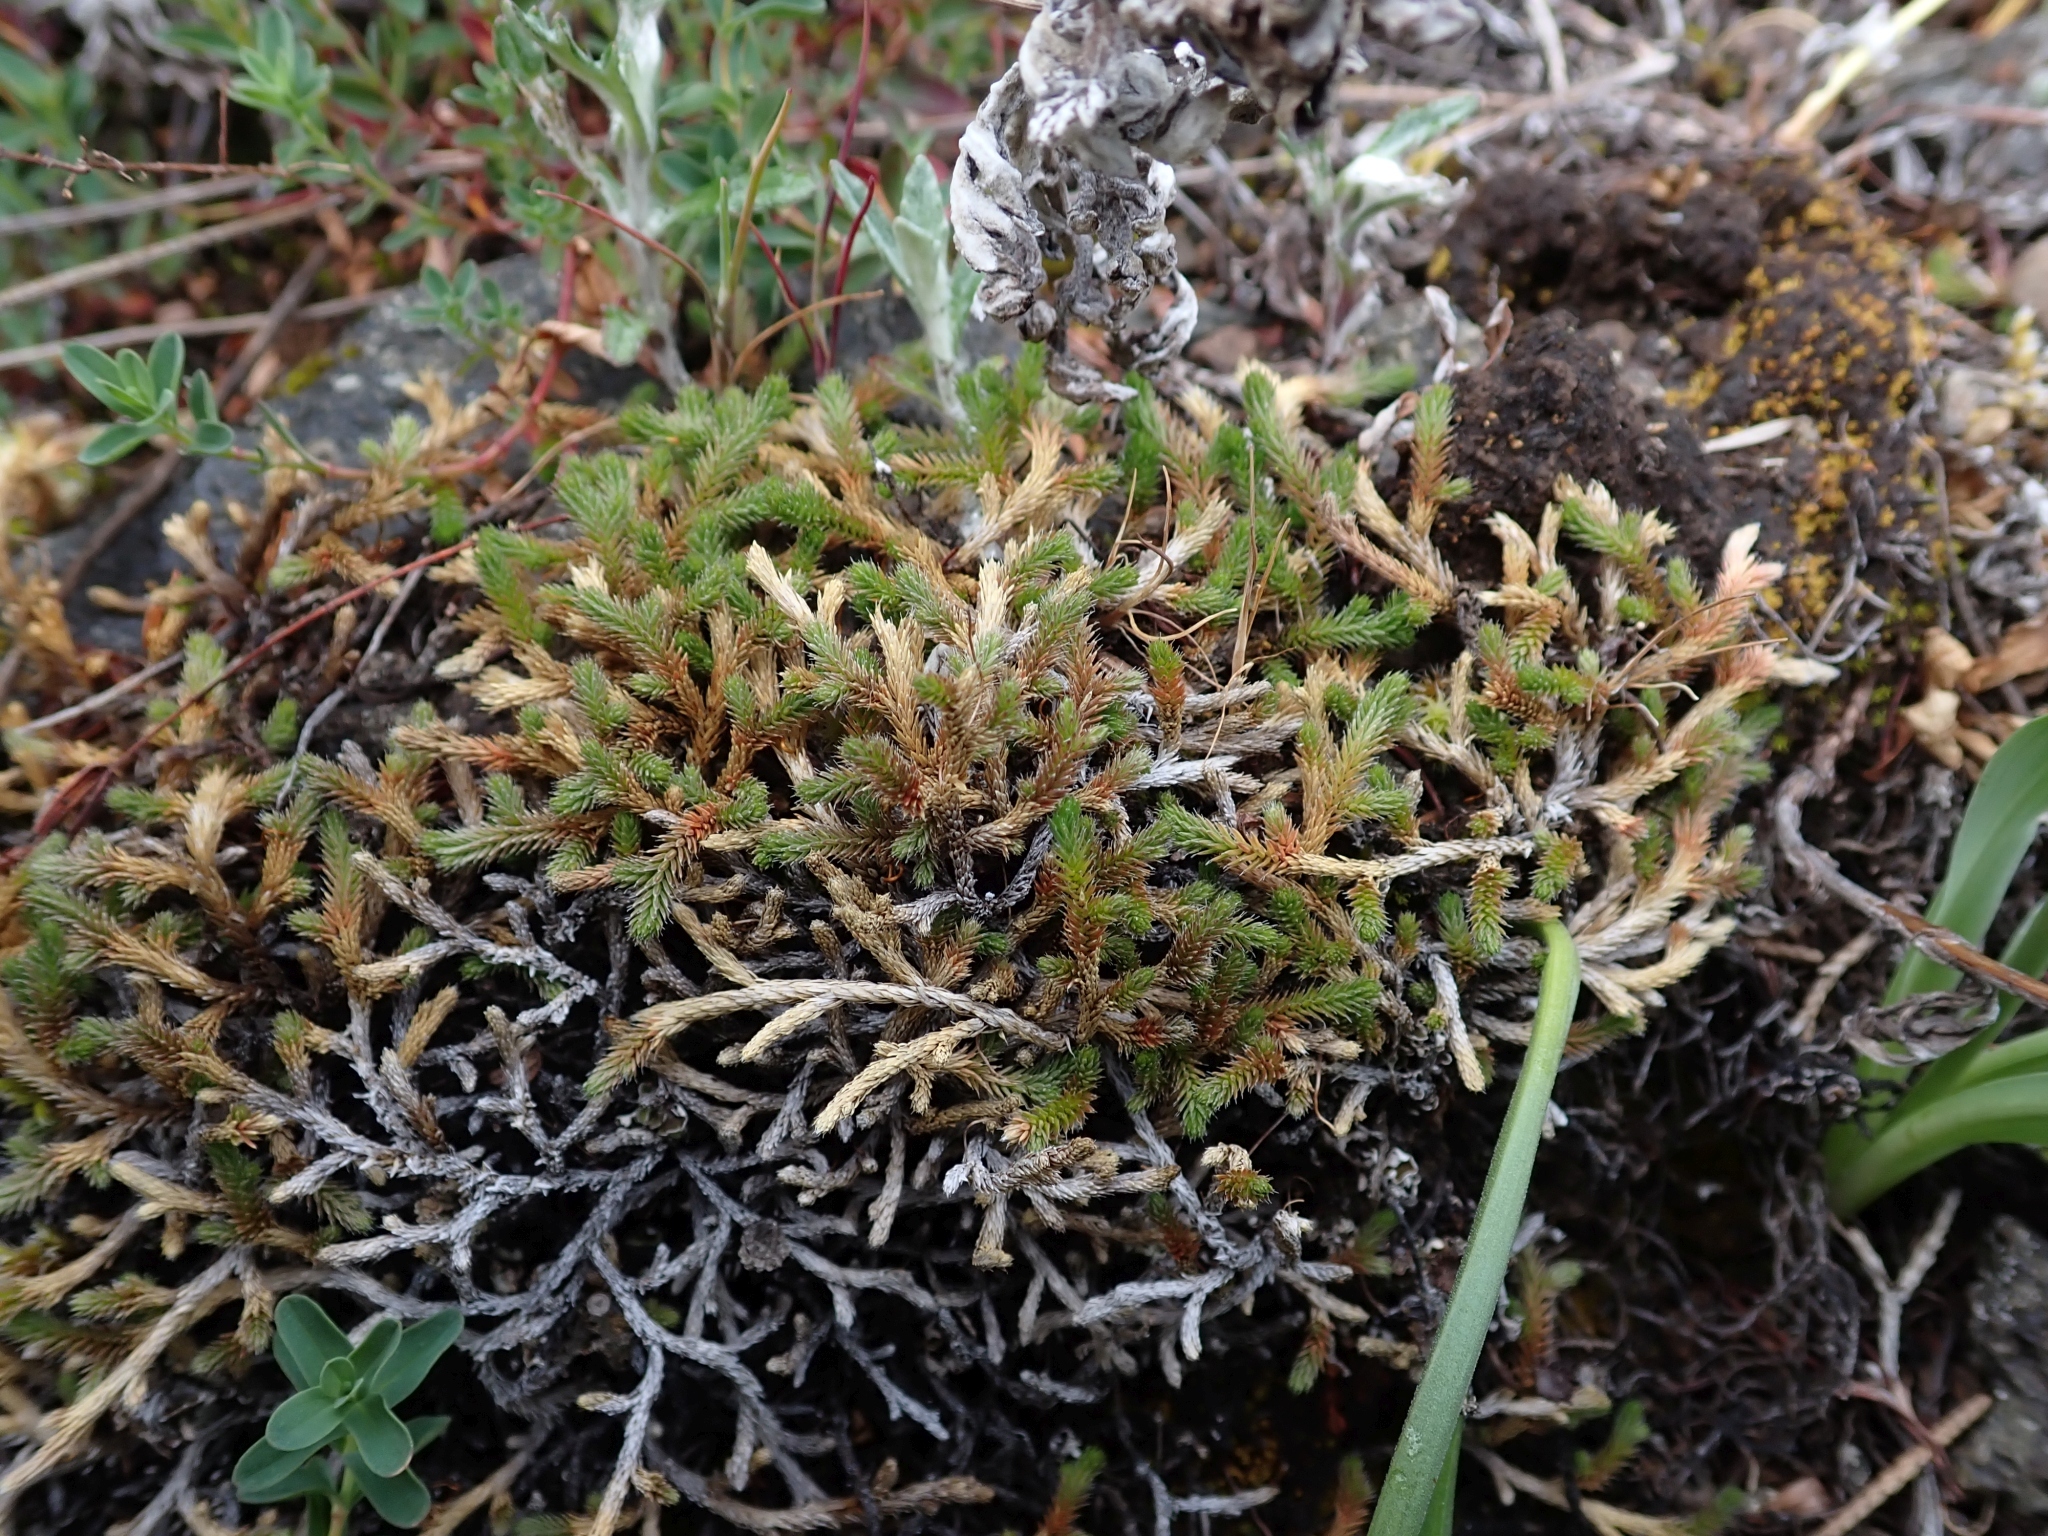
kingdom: Plantae
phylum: Tracheophyta
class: Lycopodiopsida
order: Selaginellales
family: Selaginellaceae
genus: Selaginella
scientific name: Selaginella wallacei
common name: Wallace's selaginella
